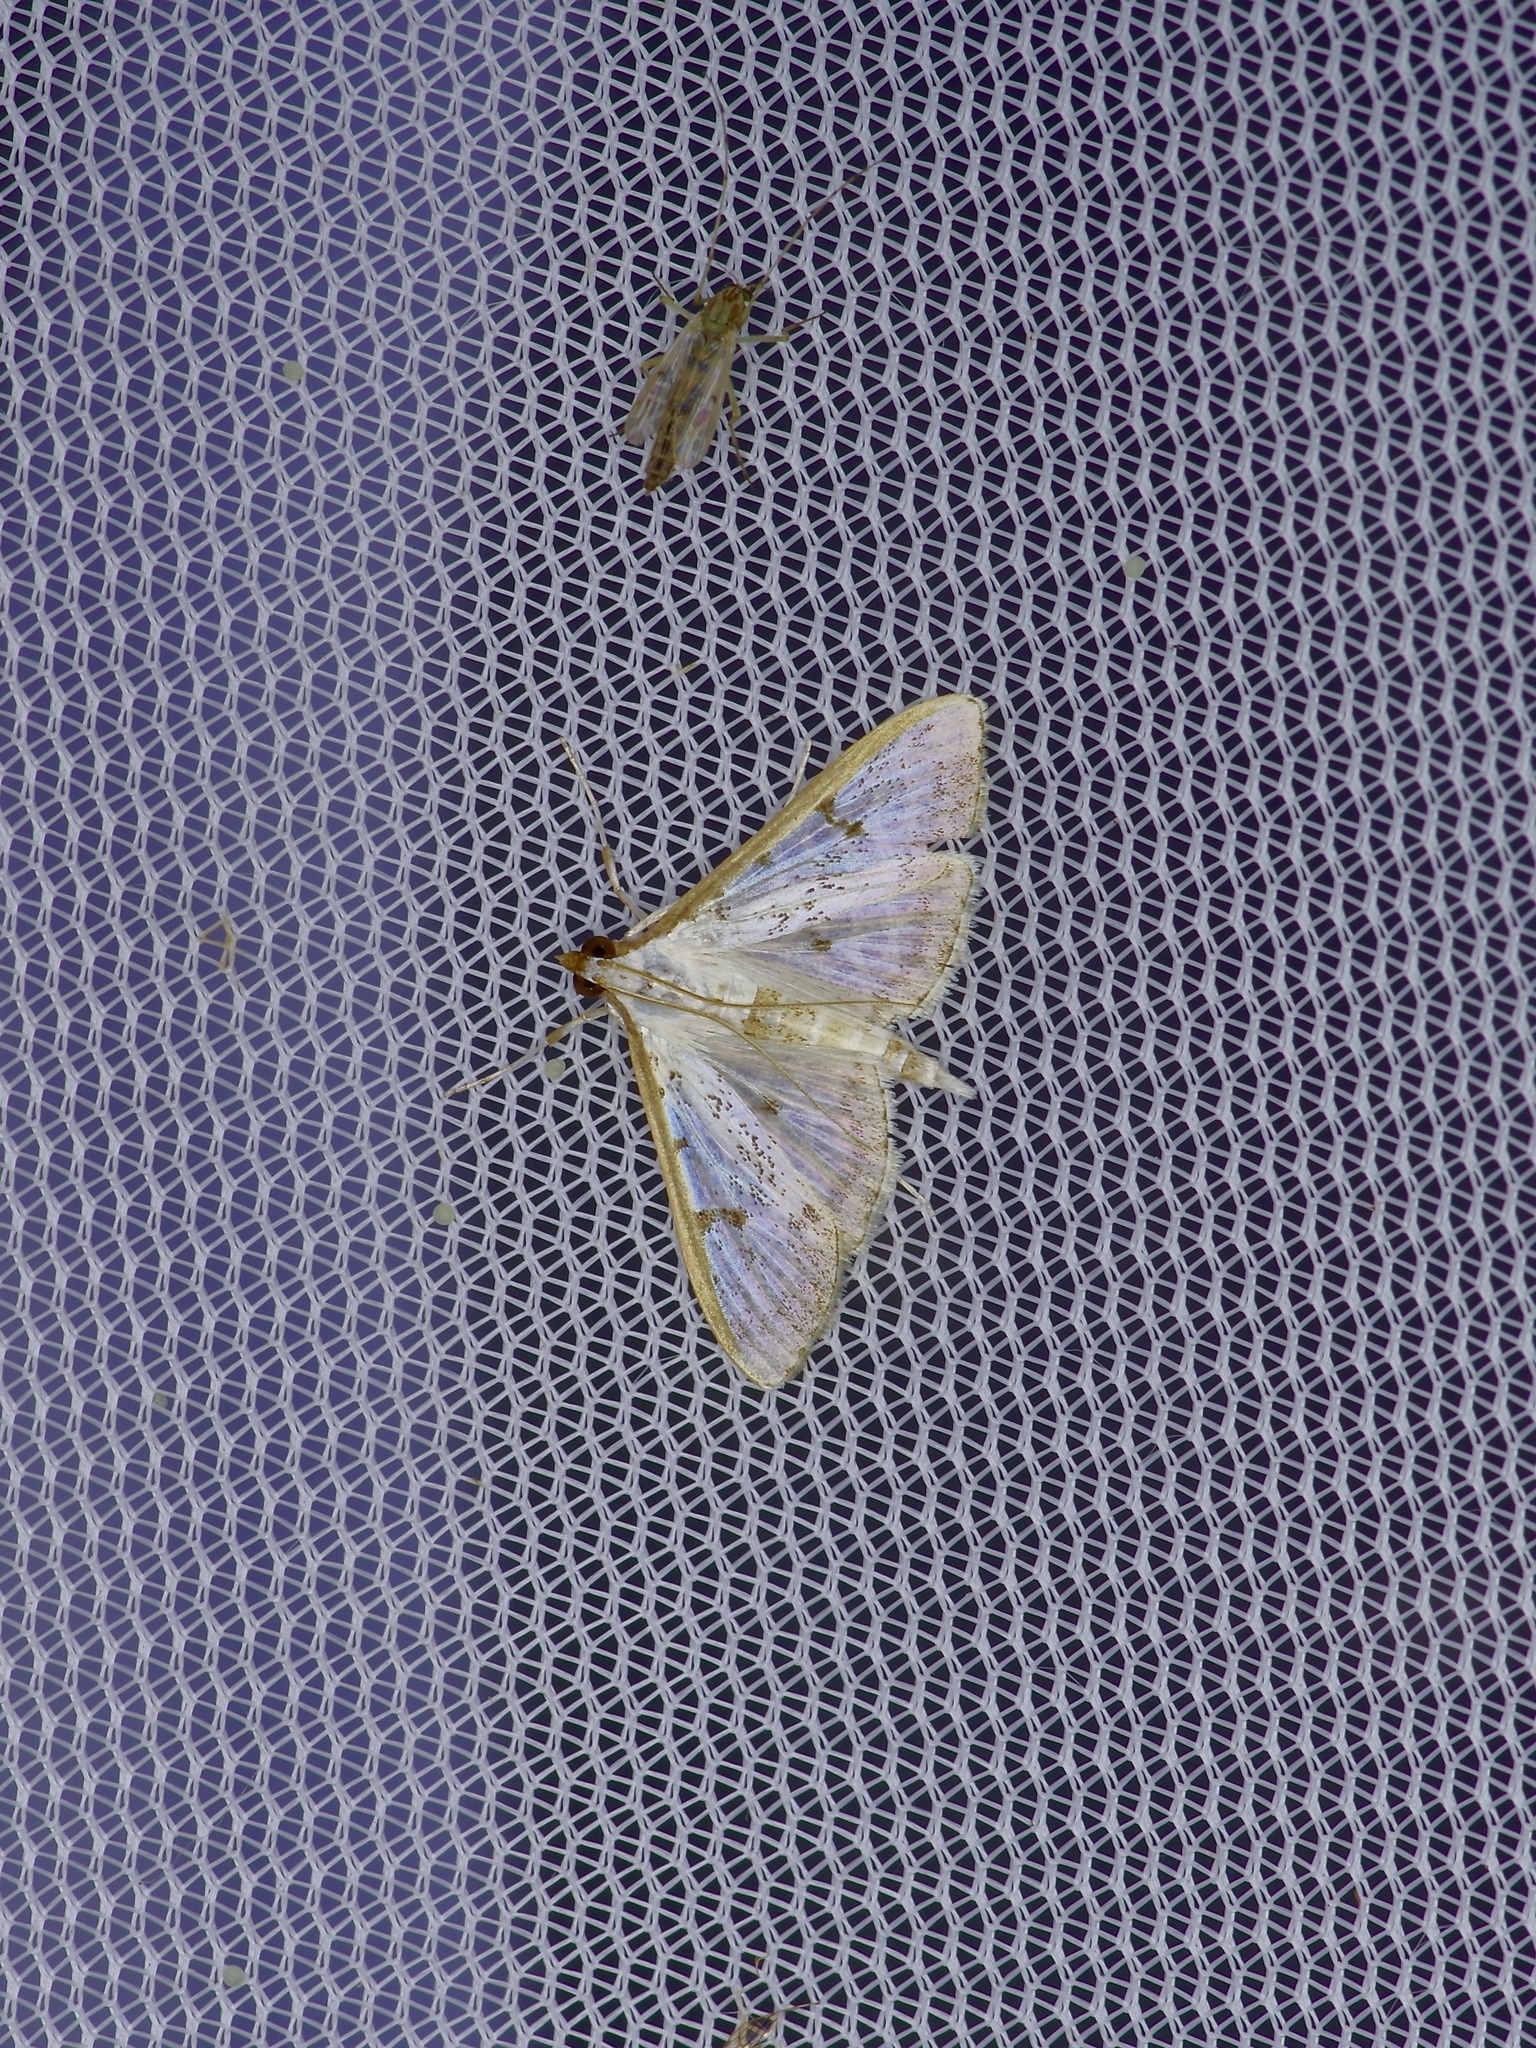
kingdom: Animalia
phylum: Arthropoda
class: Insecta
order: Lepidoptera
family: Crambidae
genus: Palpita
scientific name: Palpita gracilalis
